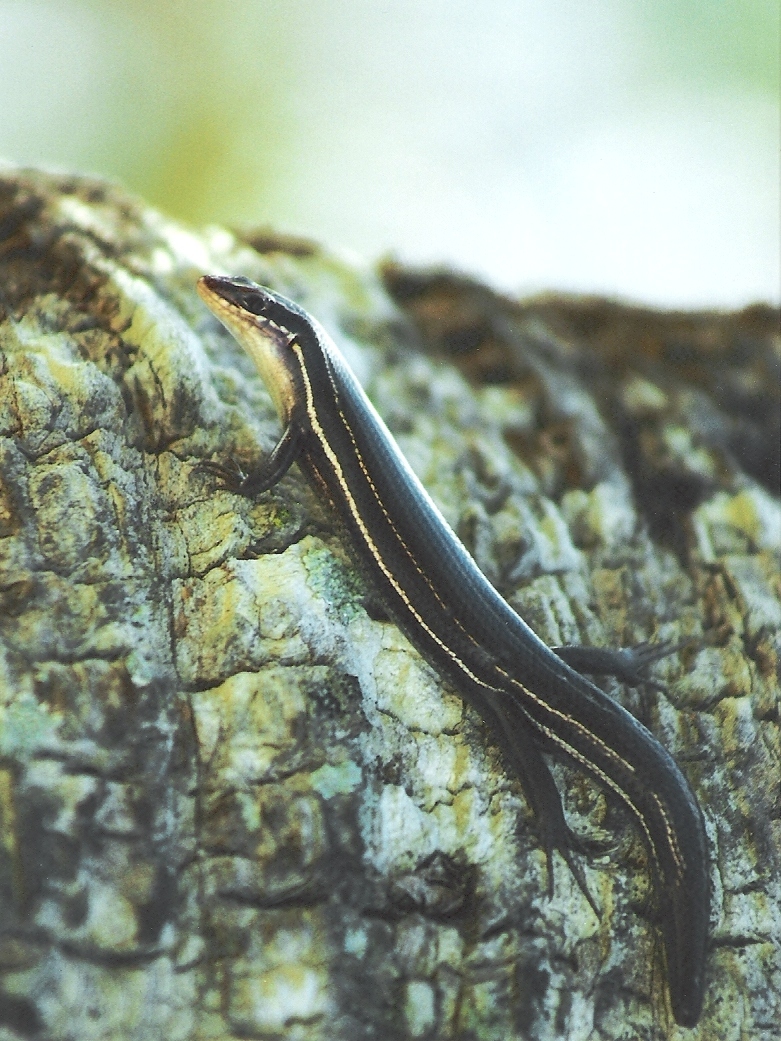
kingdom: Animalia
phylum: Chordata
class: Squamata
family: Scincidae
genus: Plestiodon
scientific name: Plestiodon inexpectatus
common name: Southeastern five-lined skink
